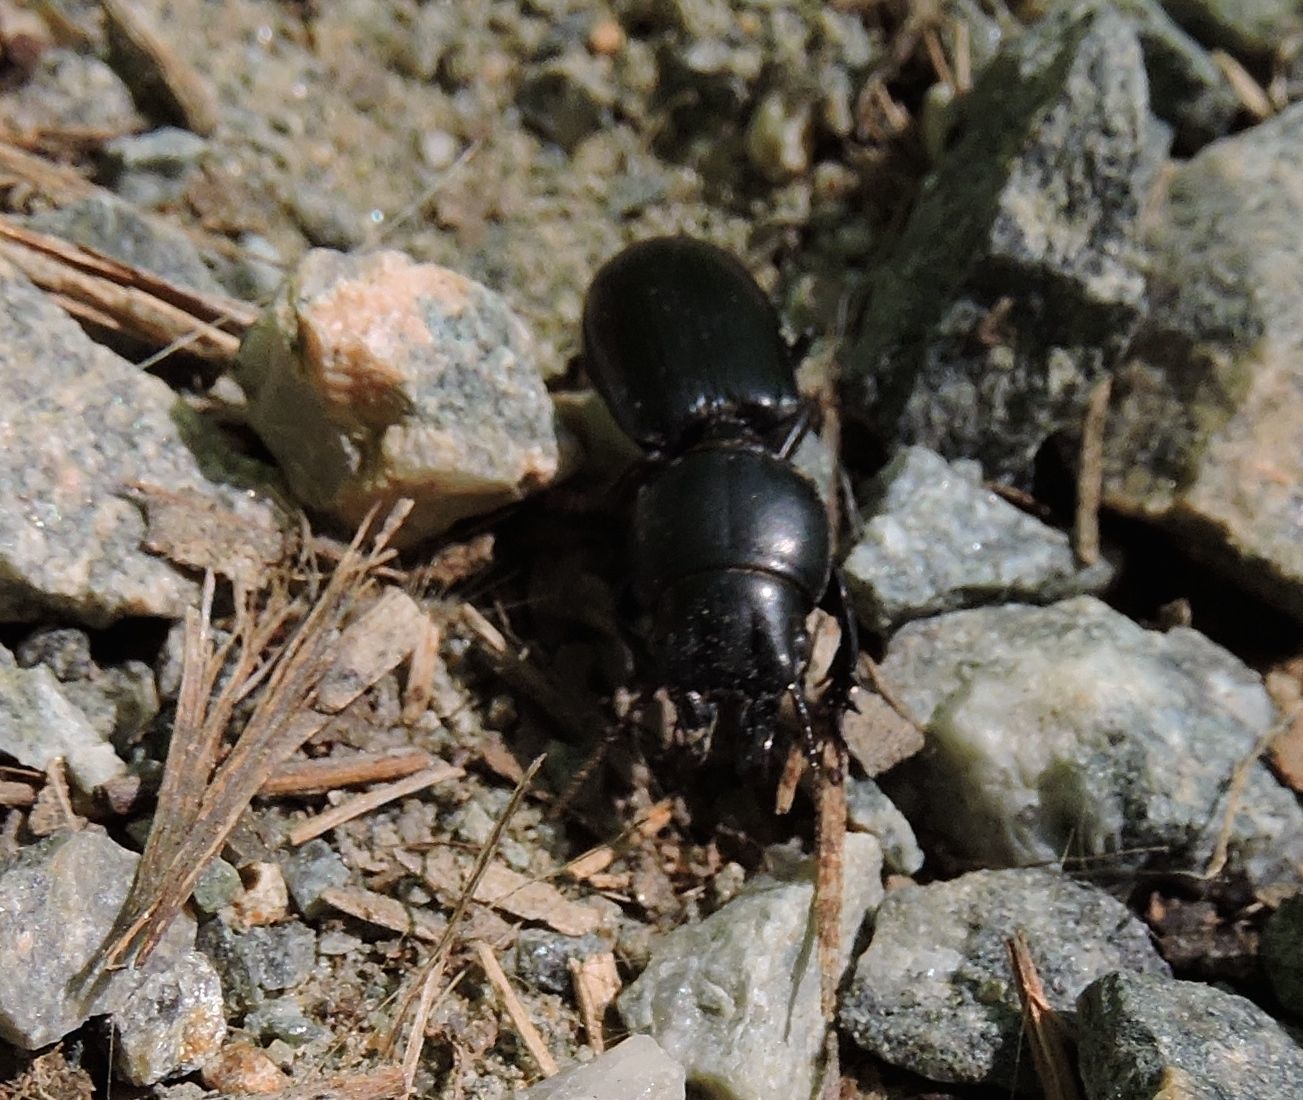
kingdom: Animalia
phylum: Arthropoda
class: Insecta
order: Coleoptera
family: Carabidae
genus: Scarites
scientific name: Scarites subterraneus
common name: Big-headed ground beetle
